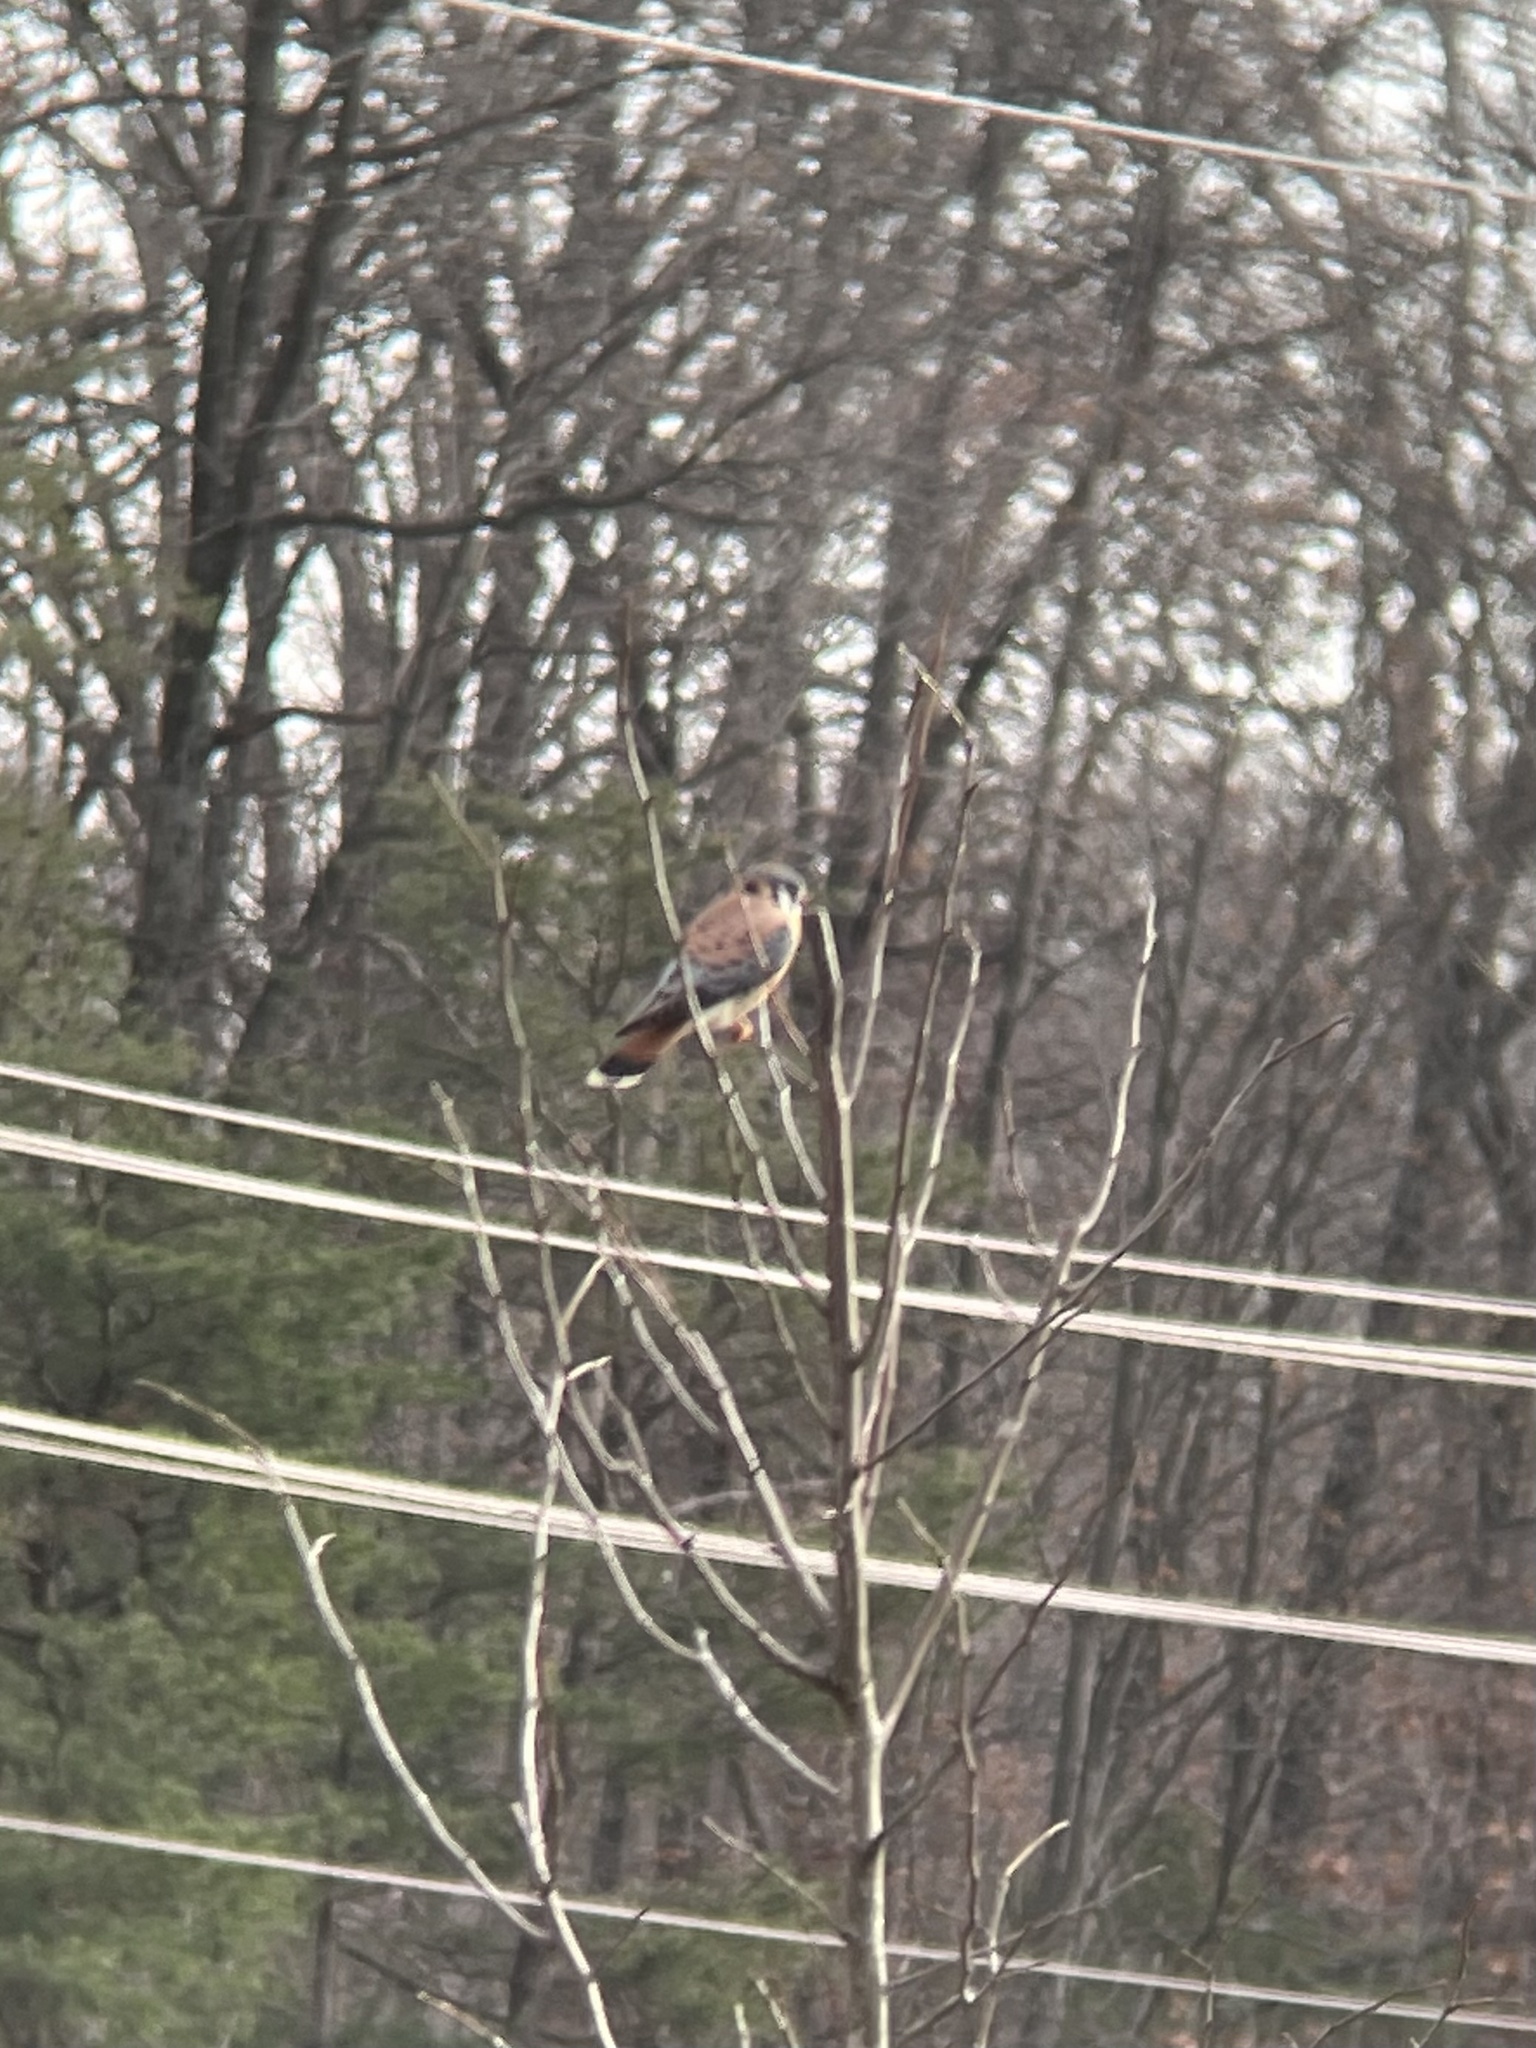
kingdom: Animalia
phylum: Chordata
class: Aves
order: Falconiformes
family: Falconidae
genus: Falco
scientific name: Falco sparverius
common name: American kestrel
